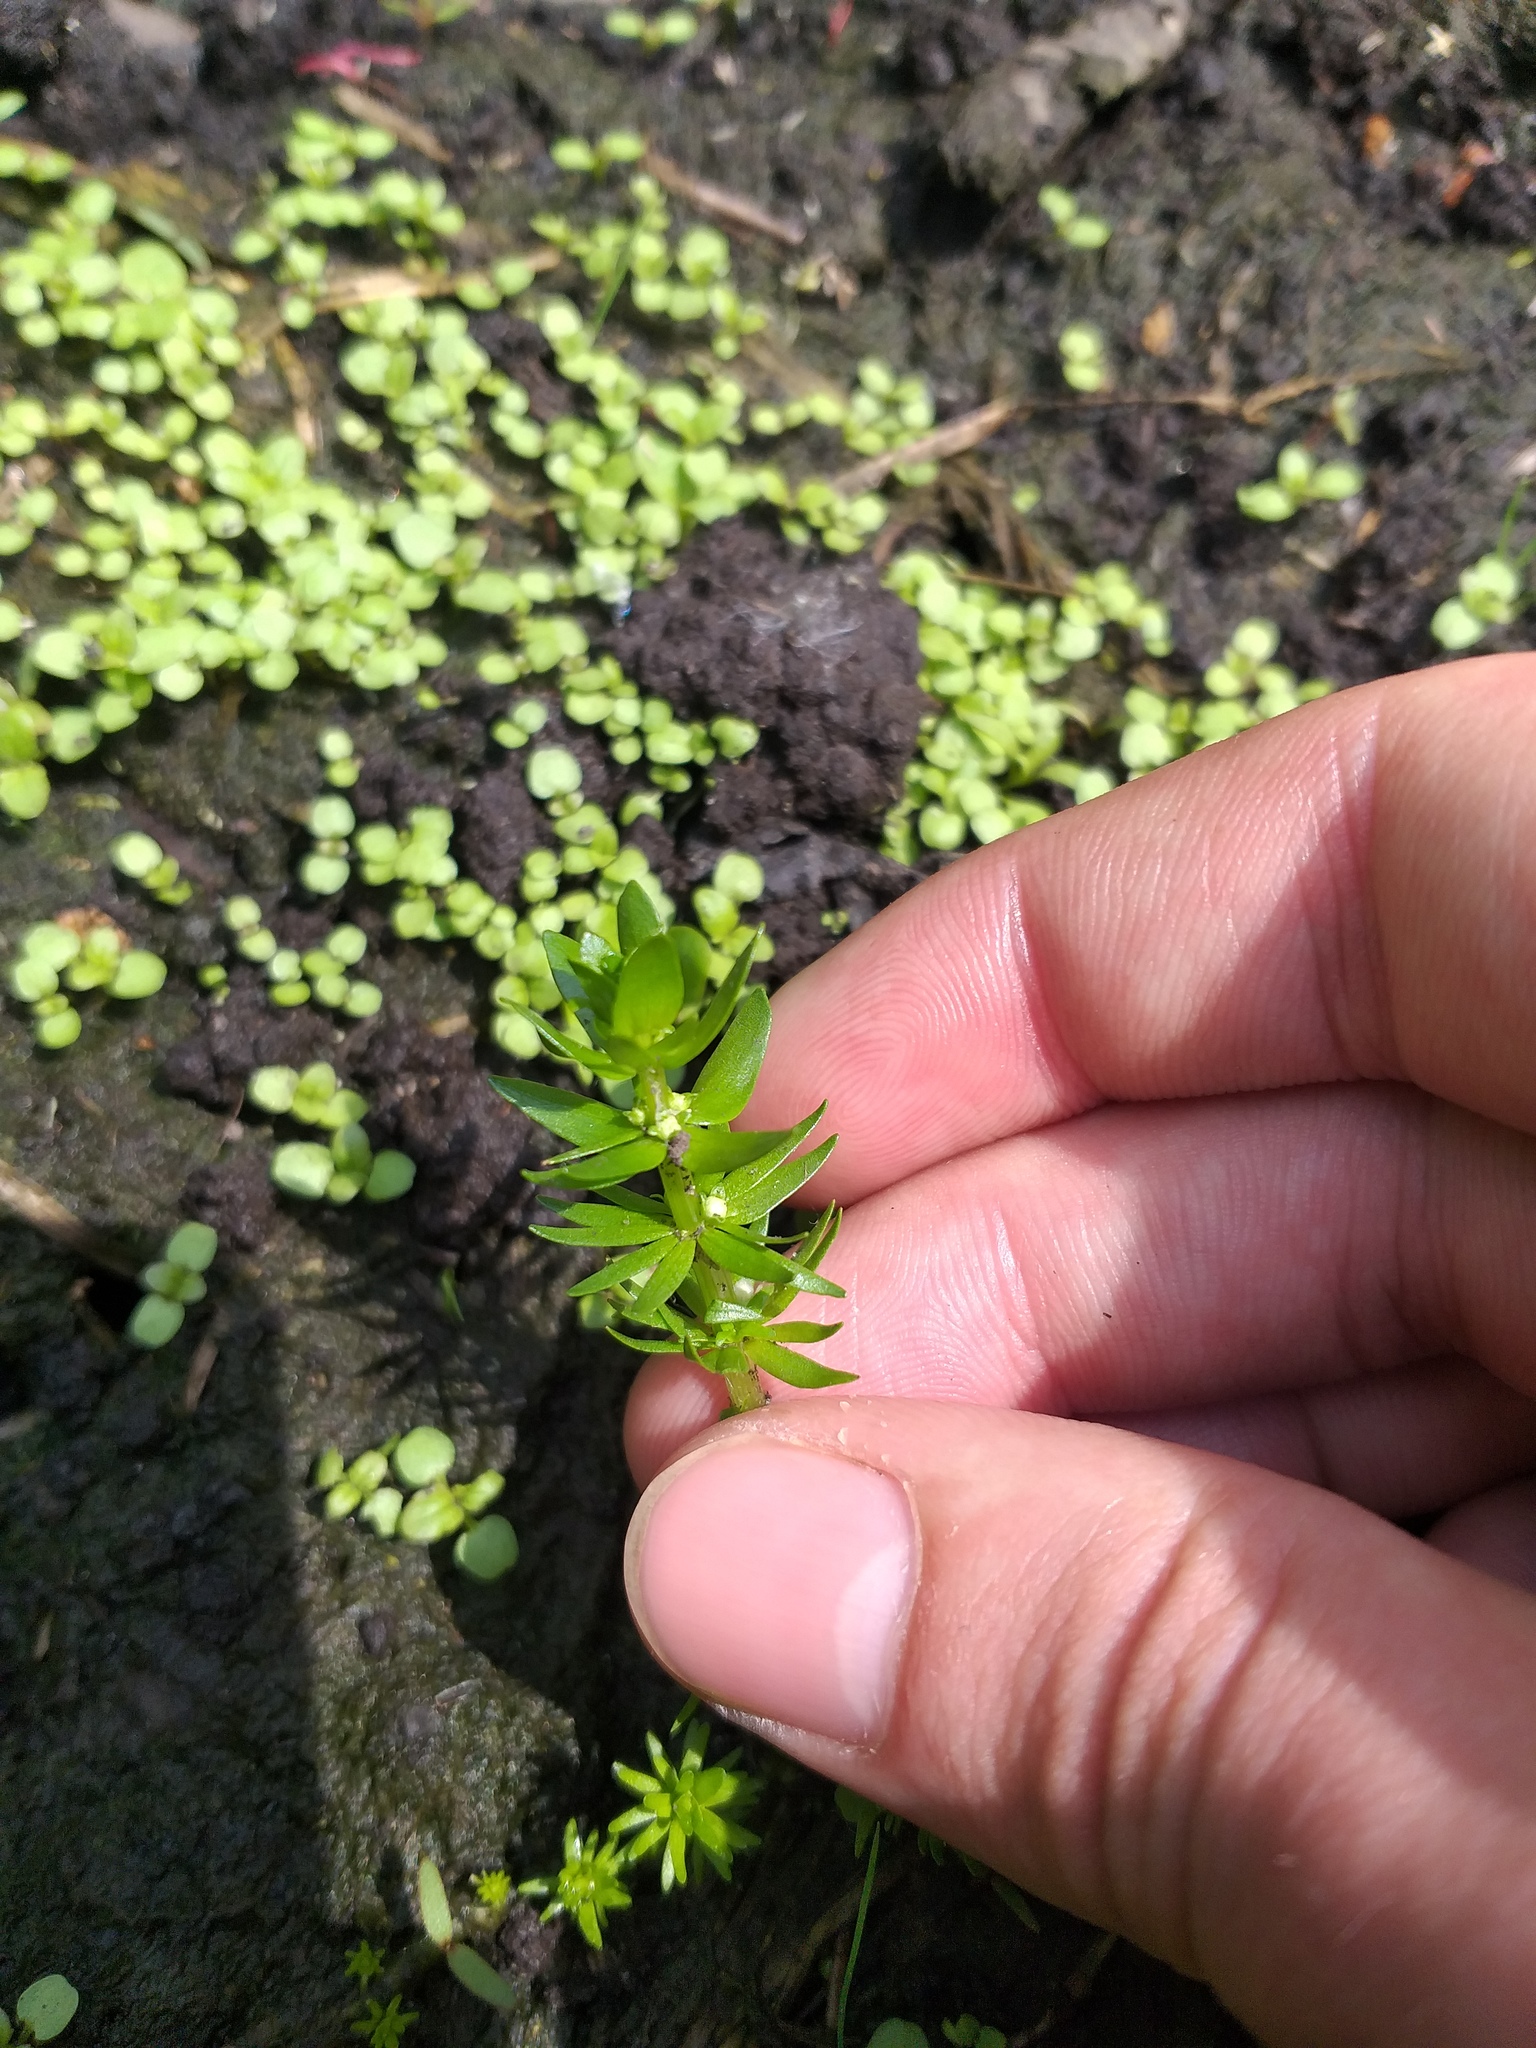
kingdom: Plantae
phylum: Tracheophyta
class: Magnoliopsida
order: Malpighiales
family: Elatinaceae
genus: Elatine
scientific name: Elatine alsinastrum
